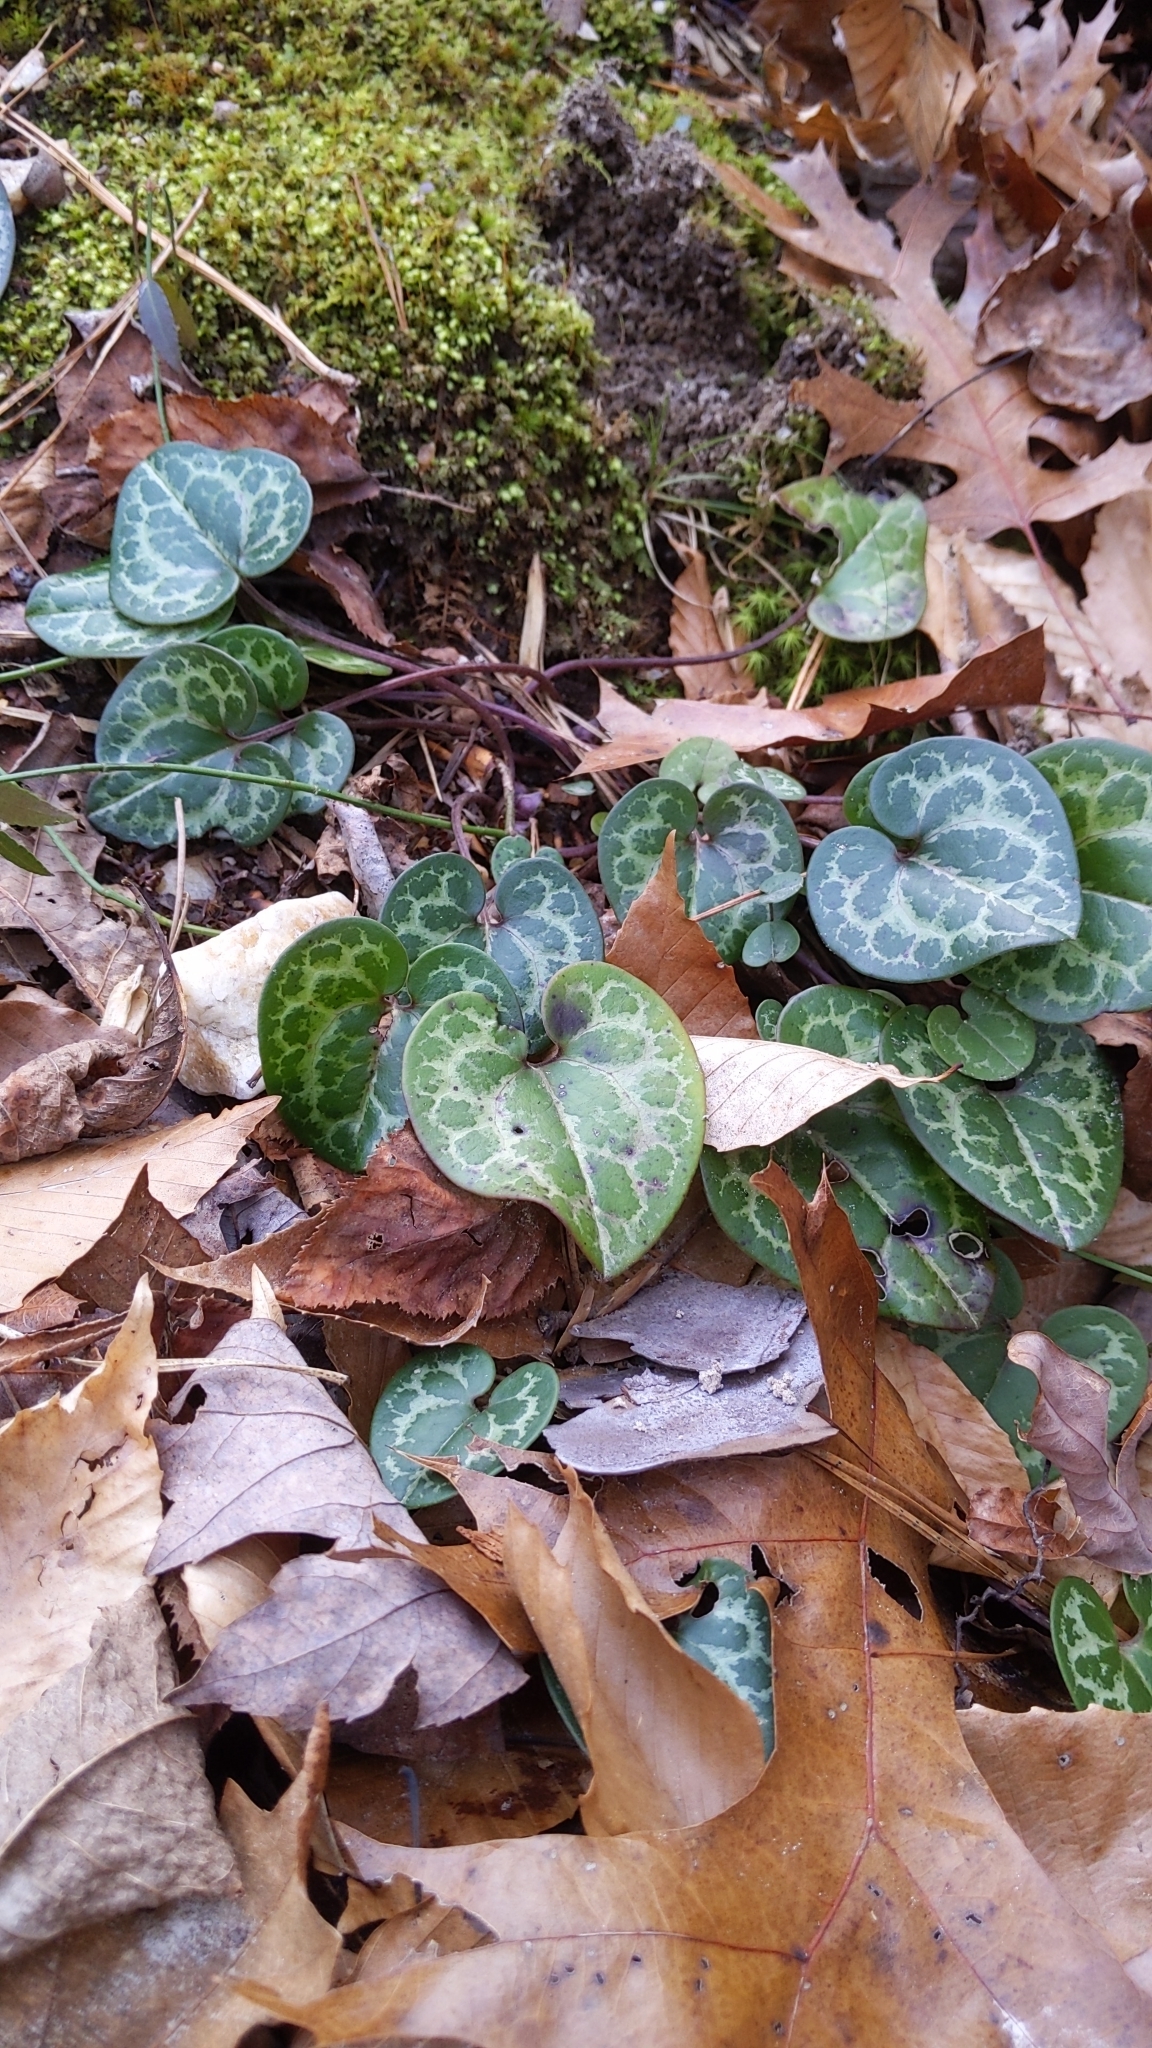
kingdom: Plantae
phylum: Tracheophyta
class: Magnoliopsida
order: Piperales
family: Aristolochiaceae
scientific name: Aristolochiaceae
